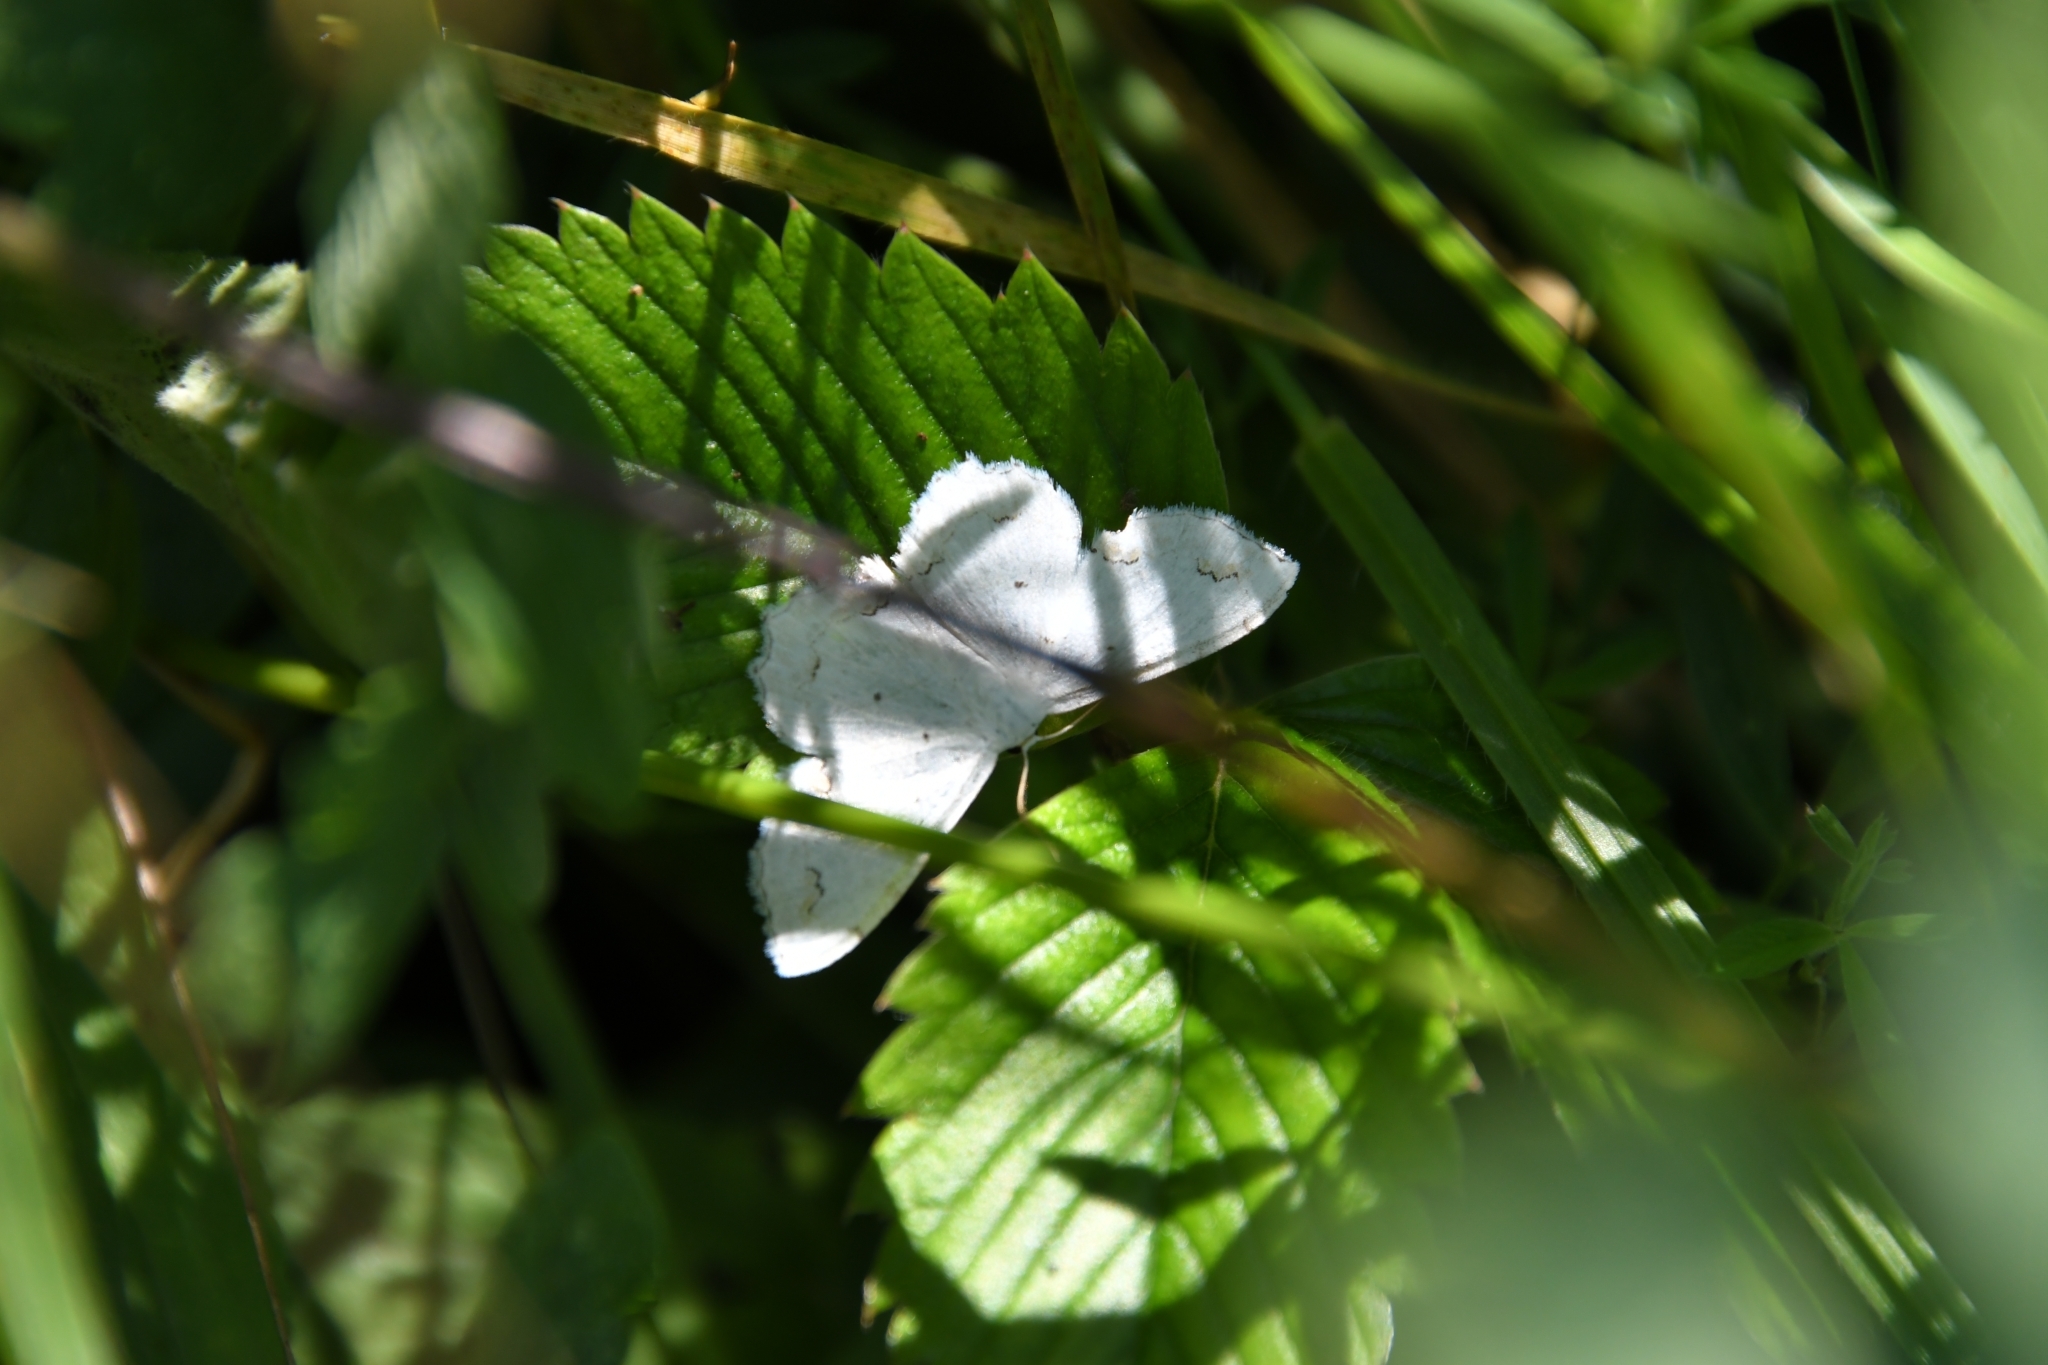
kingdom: Animalia
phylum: Arthropoda
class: Insecta
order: Lepidoptera
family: Geometridae
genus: Scopula
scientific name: Scopula ornata
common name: Lace border
